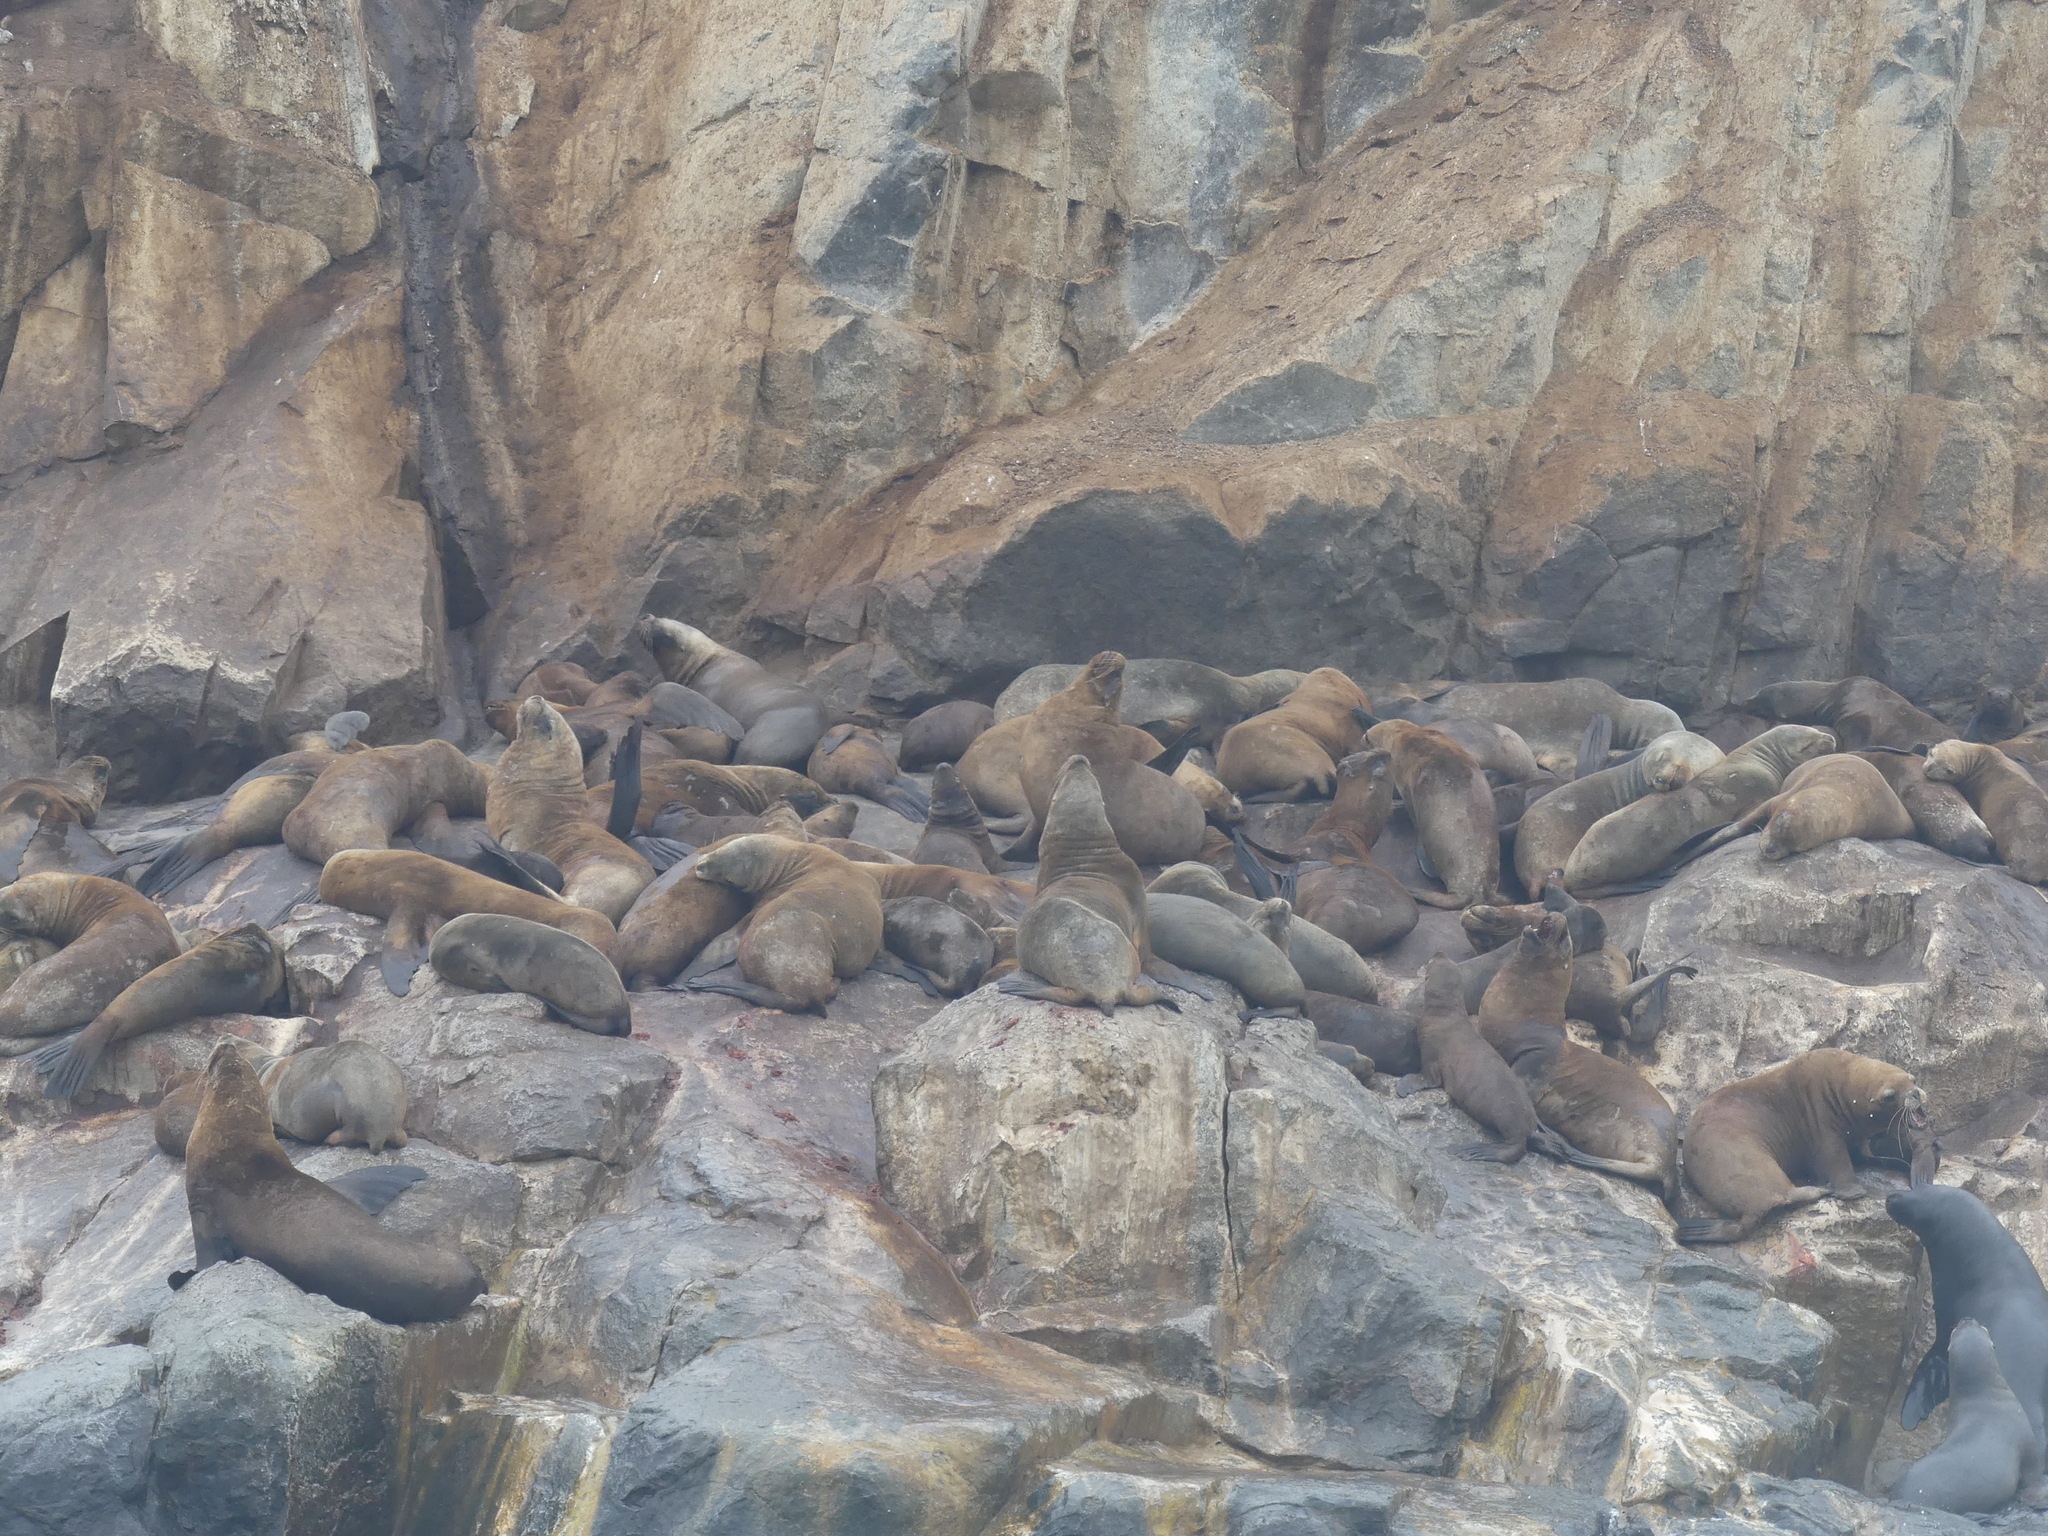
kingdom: Animalia
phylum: Chordata
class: Mammalia
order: Carnivora
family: Otariidae
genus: Otaria
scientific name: Otaria byronia
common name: South american sea lion
